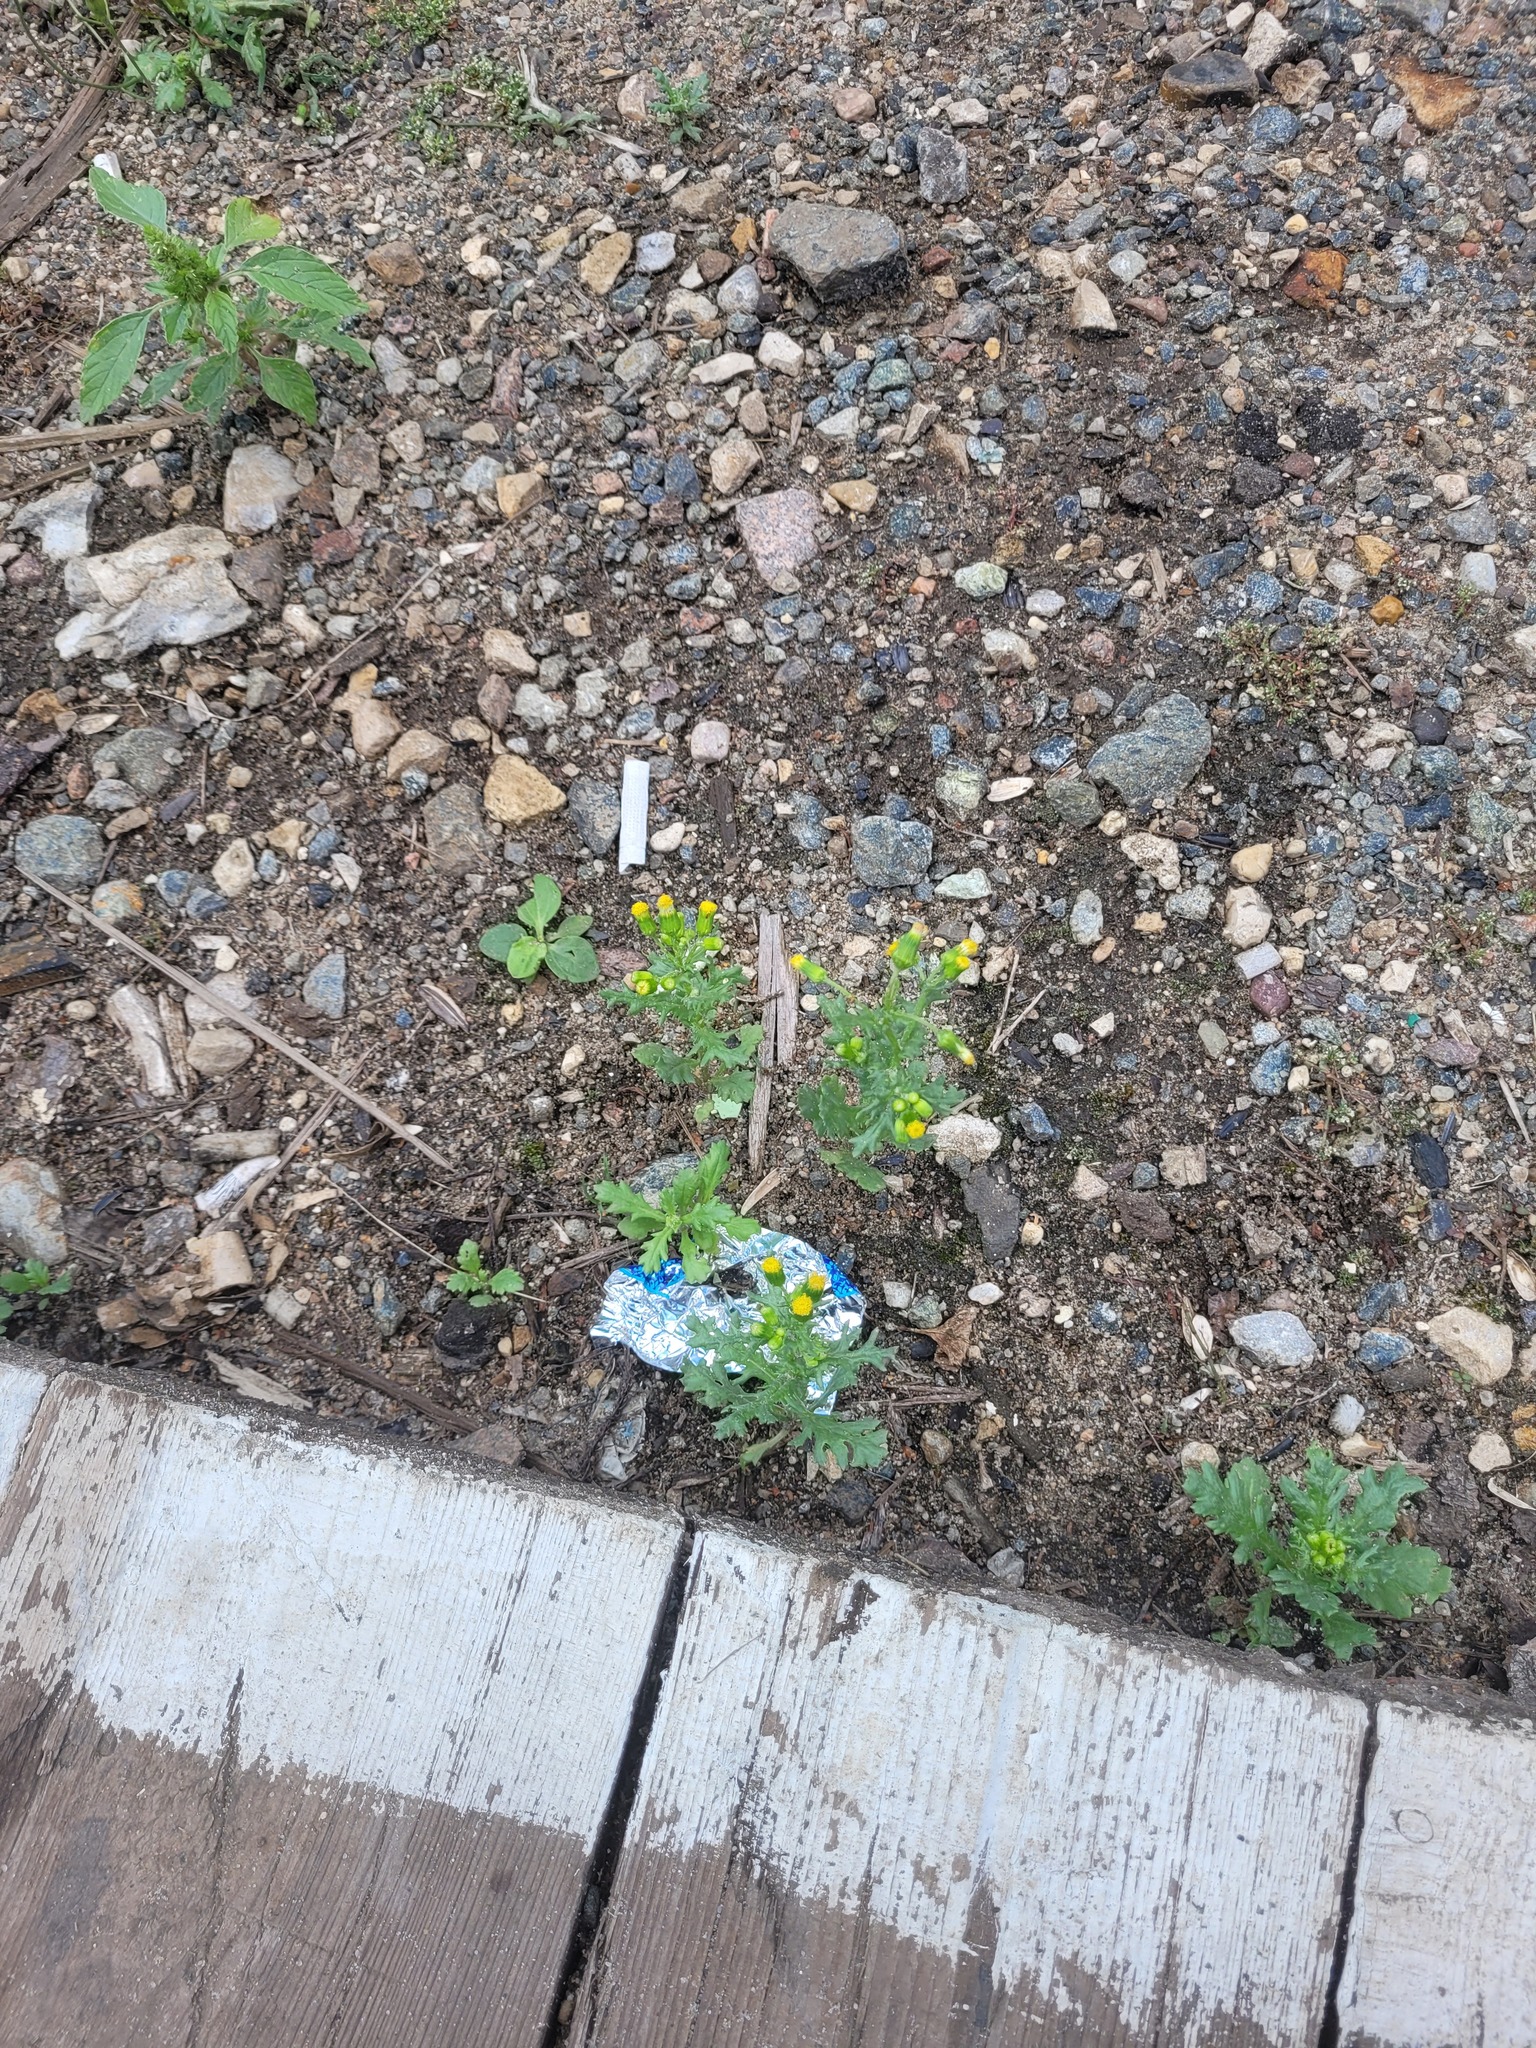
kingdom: Plantae
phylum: Tracheophyta
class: Magnoliopsida
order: Asterales
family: Asteraceae
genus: Senecio
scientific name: Senecio vulgaris
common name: Old-man-in-the-spring
